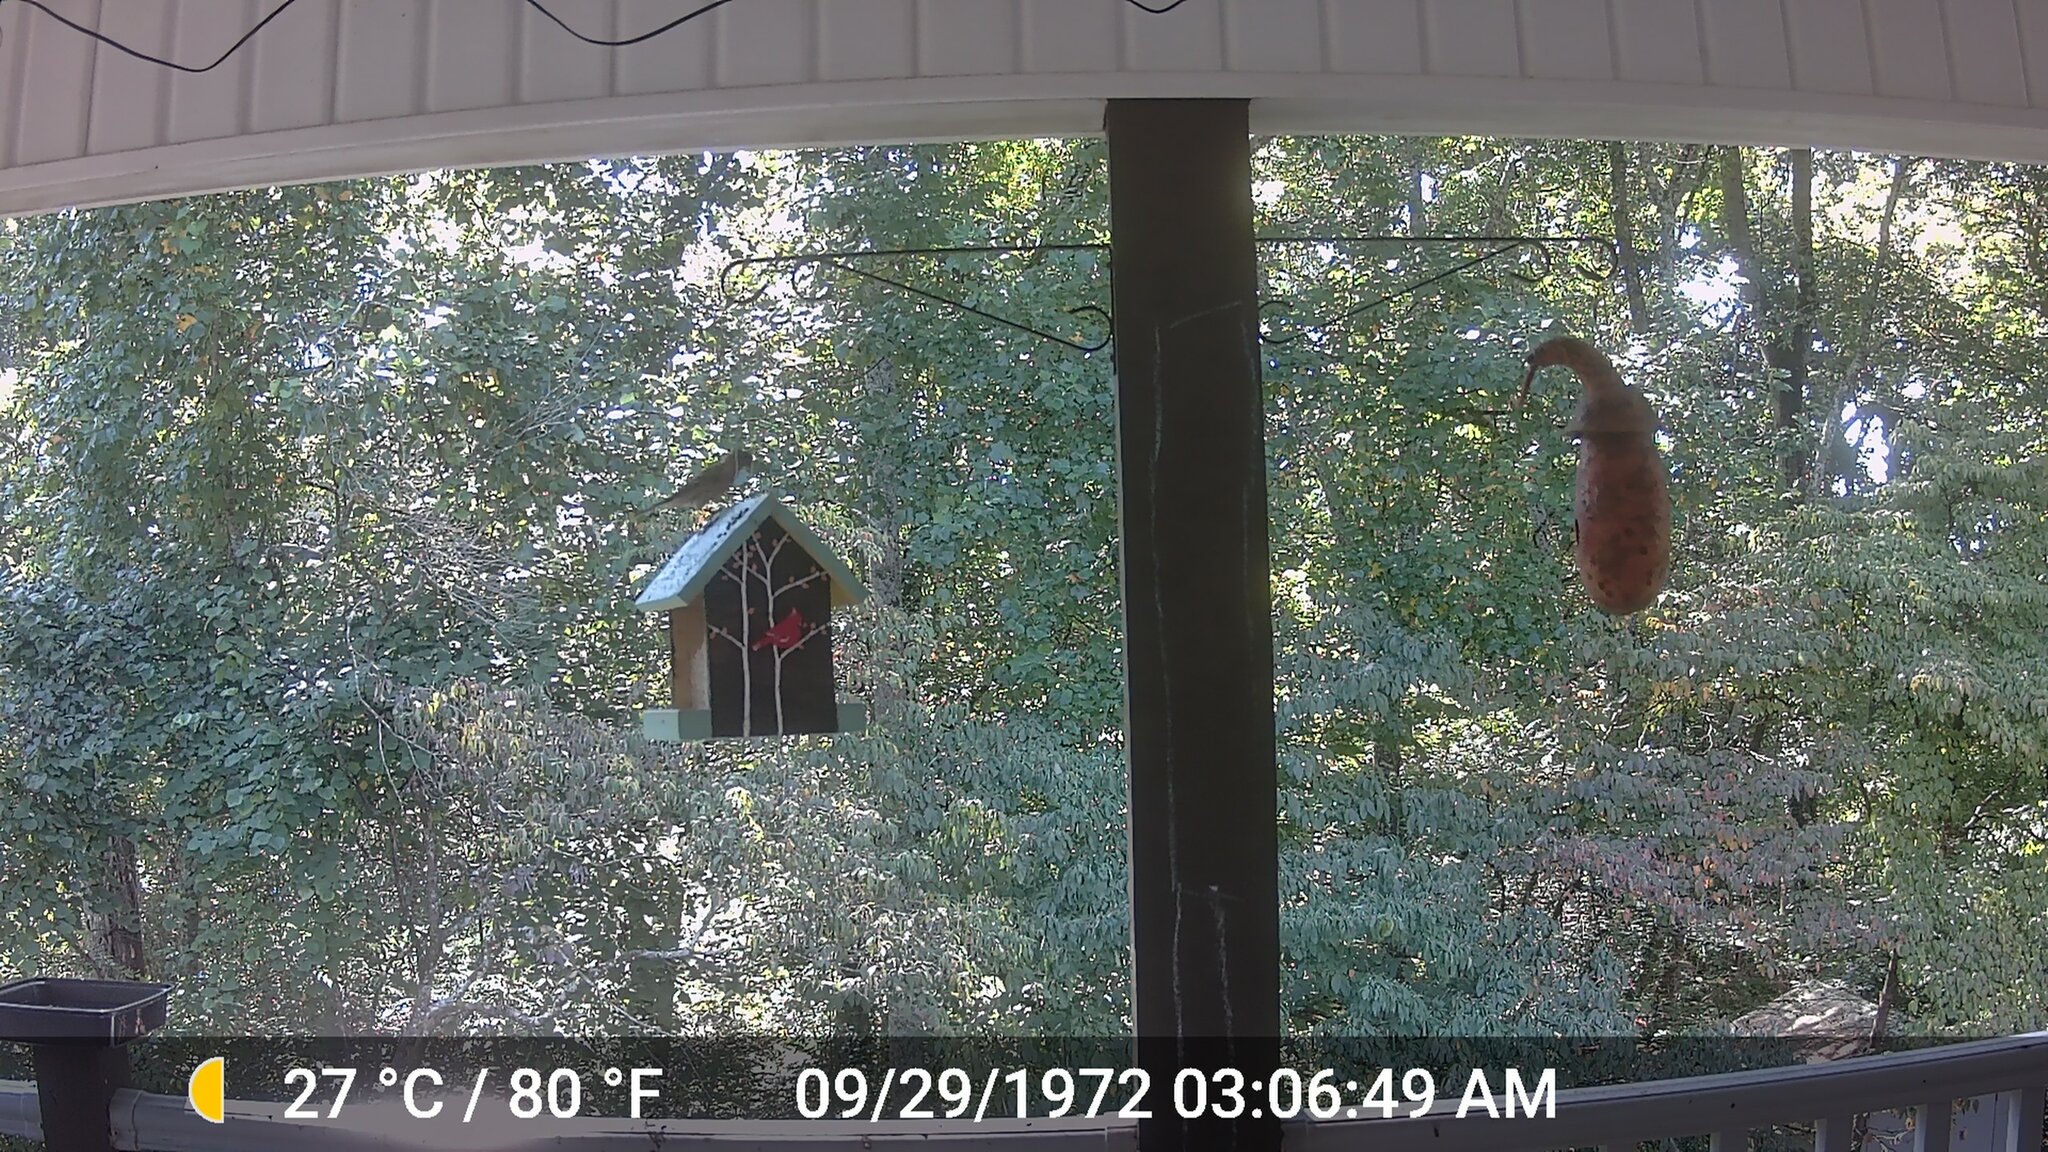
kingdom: Animalia
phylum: Chordata
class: Aves
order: Passeriformes
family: Fringillidae
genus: Haemorhous
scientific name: Haemorhous mexicanus
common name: House finch
